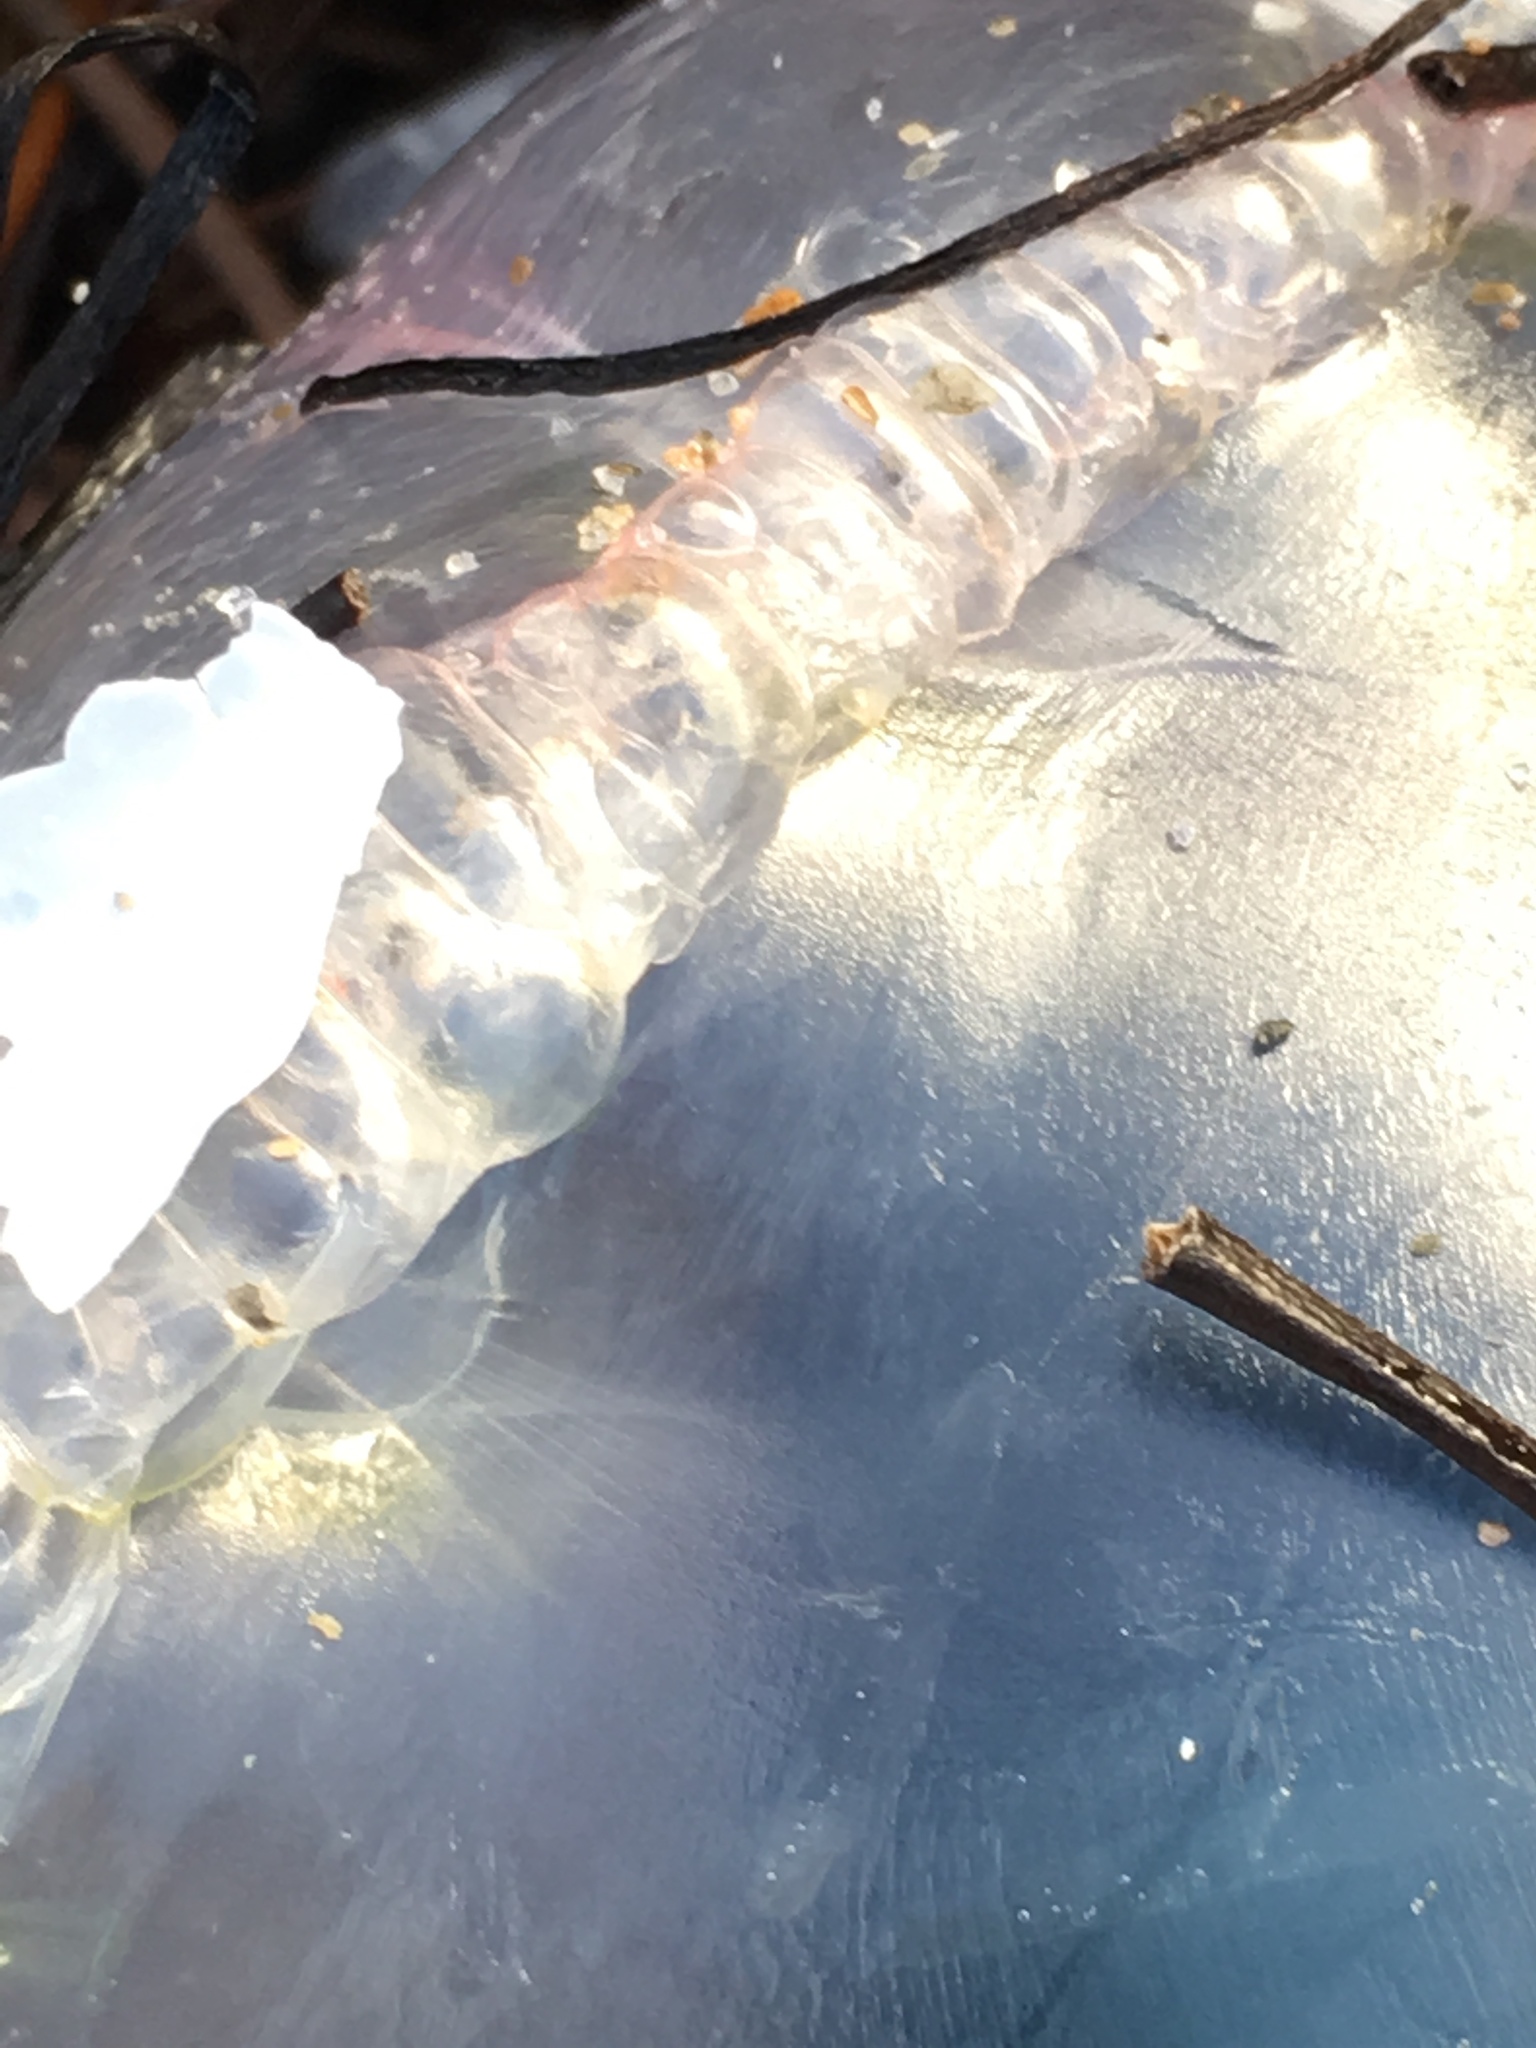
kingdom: Animalia
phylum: Cnidaria
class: Hydrozoa
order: Siphonophorae
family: Physaliidae
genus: Physalia
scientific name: Physalia physalis
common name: Portuguese man-of-war
